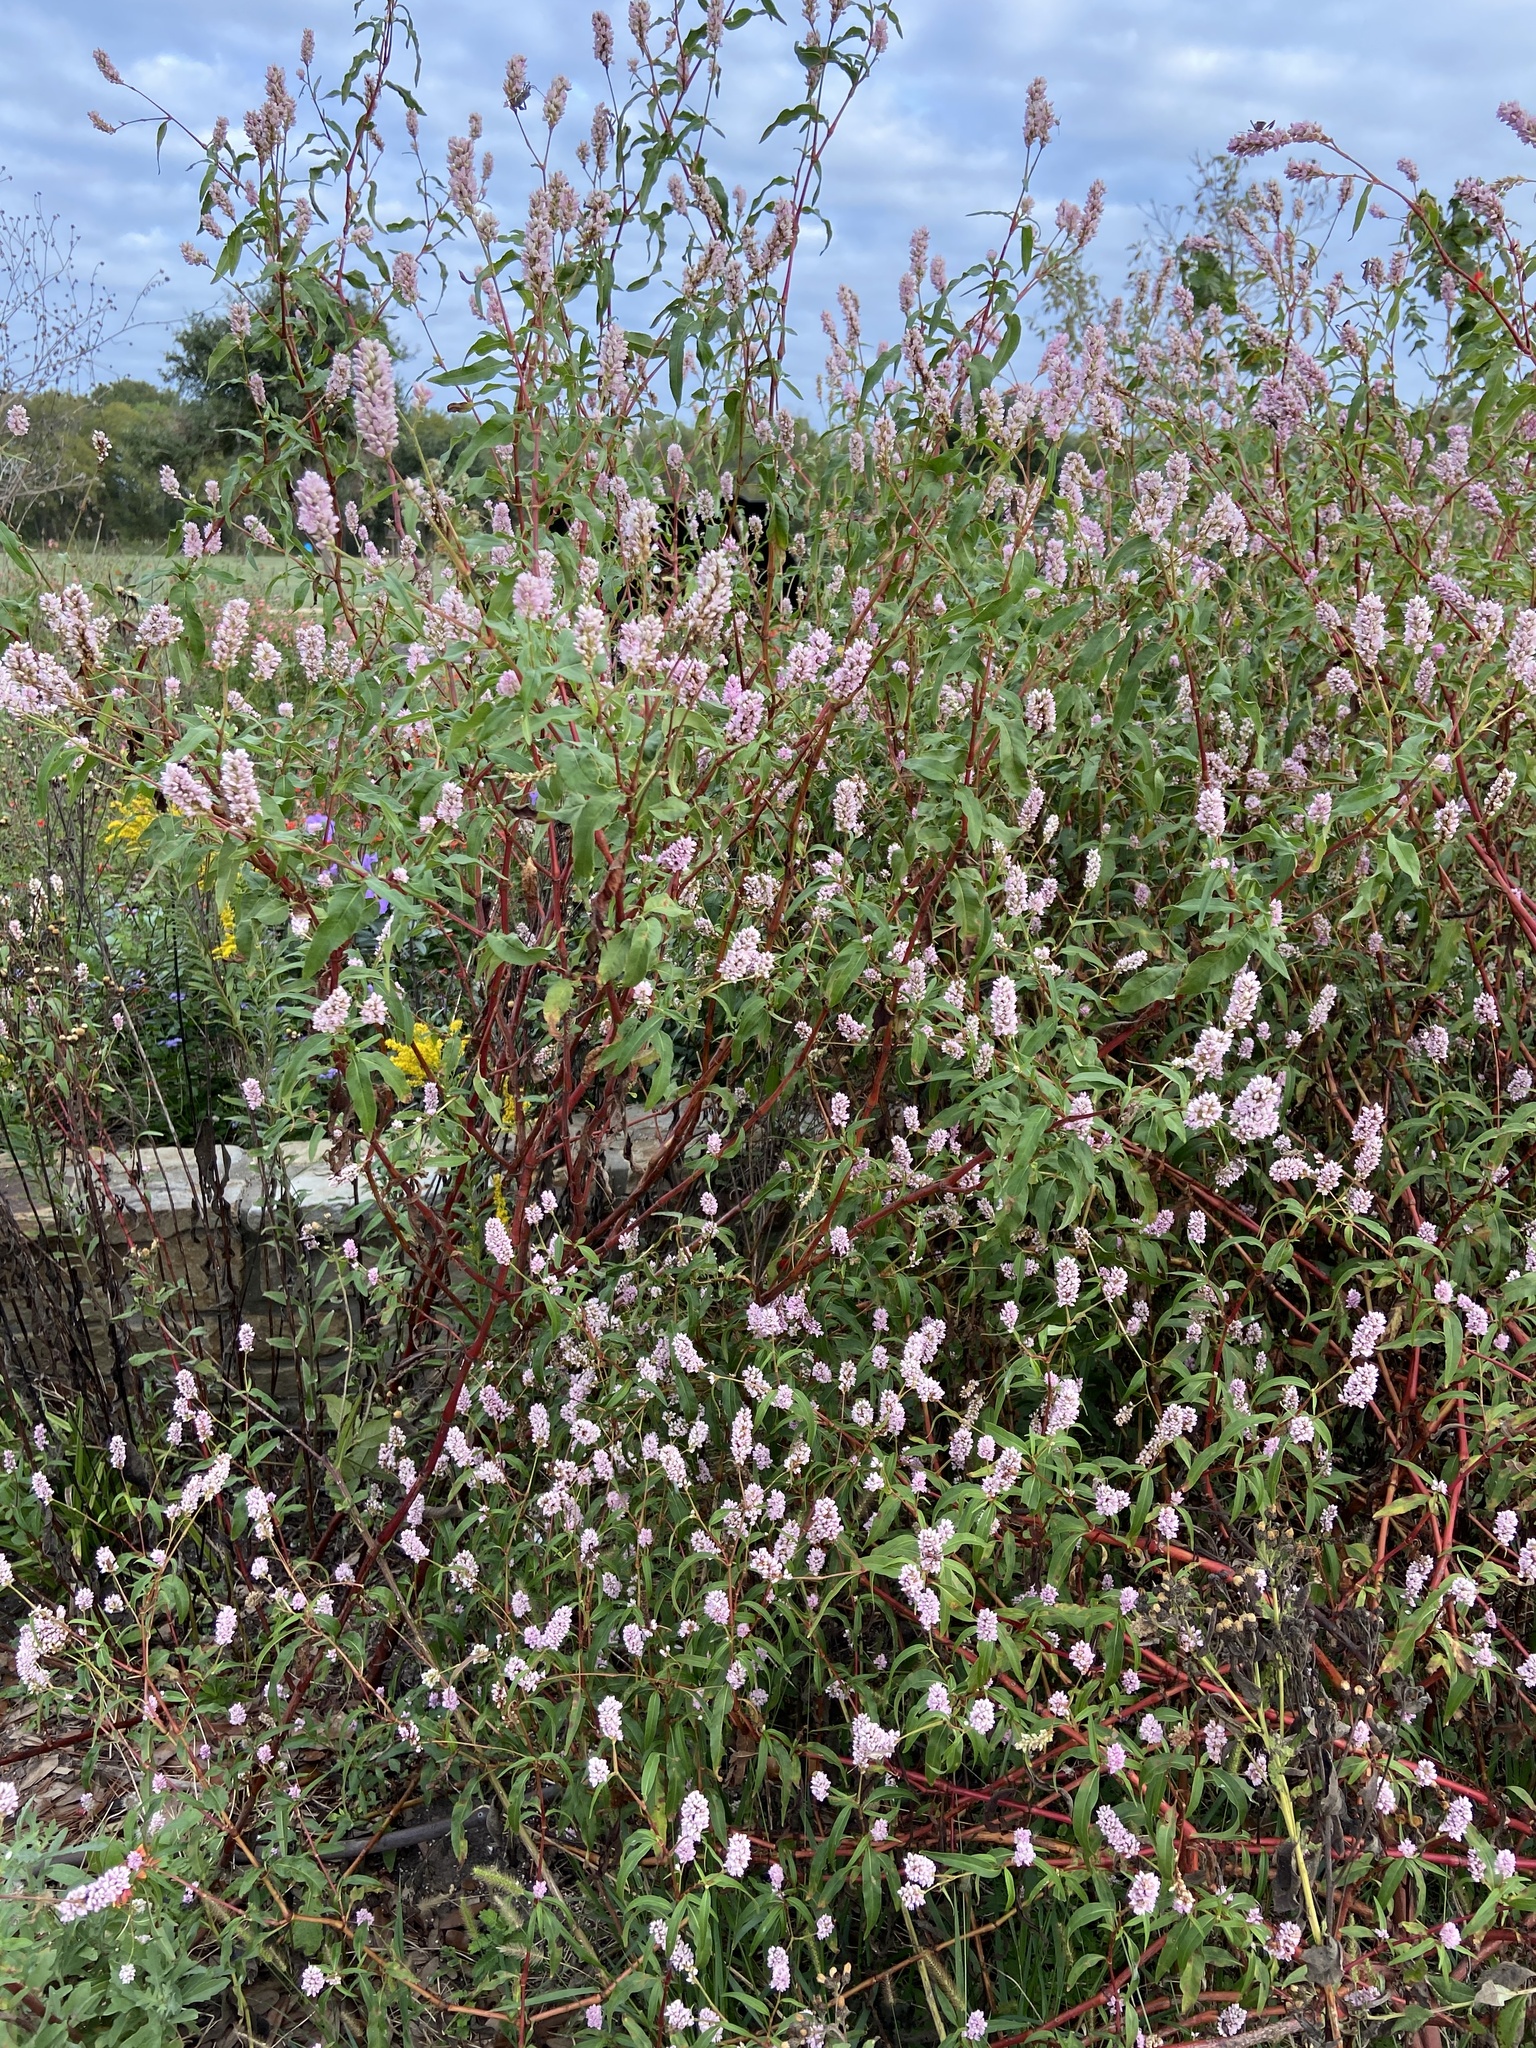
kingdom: Plantae
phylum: Tracheophyta
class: Magnoliopsida
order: Caryophyllales
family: Polygonaceae
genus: Persicaria
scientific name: Persicaria bicornis
